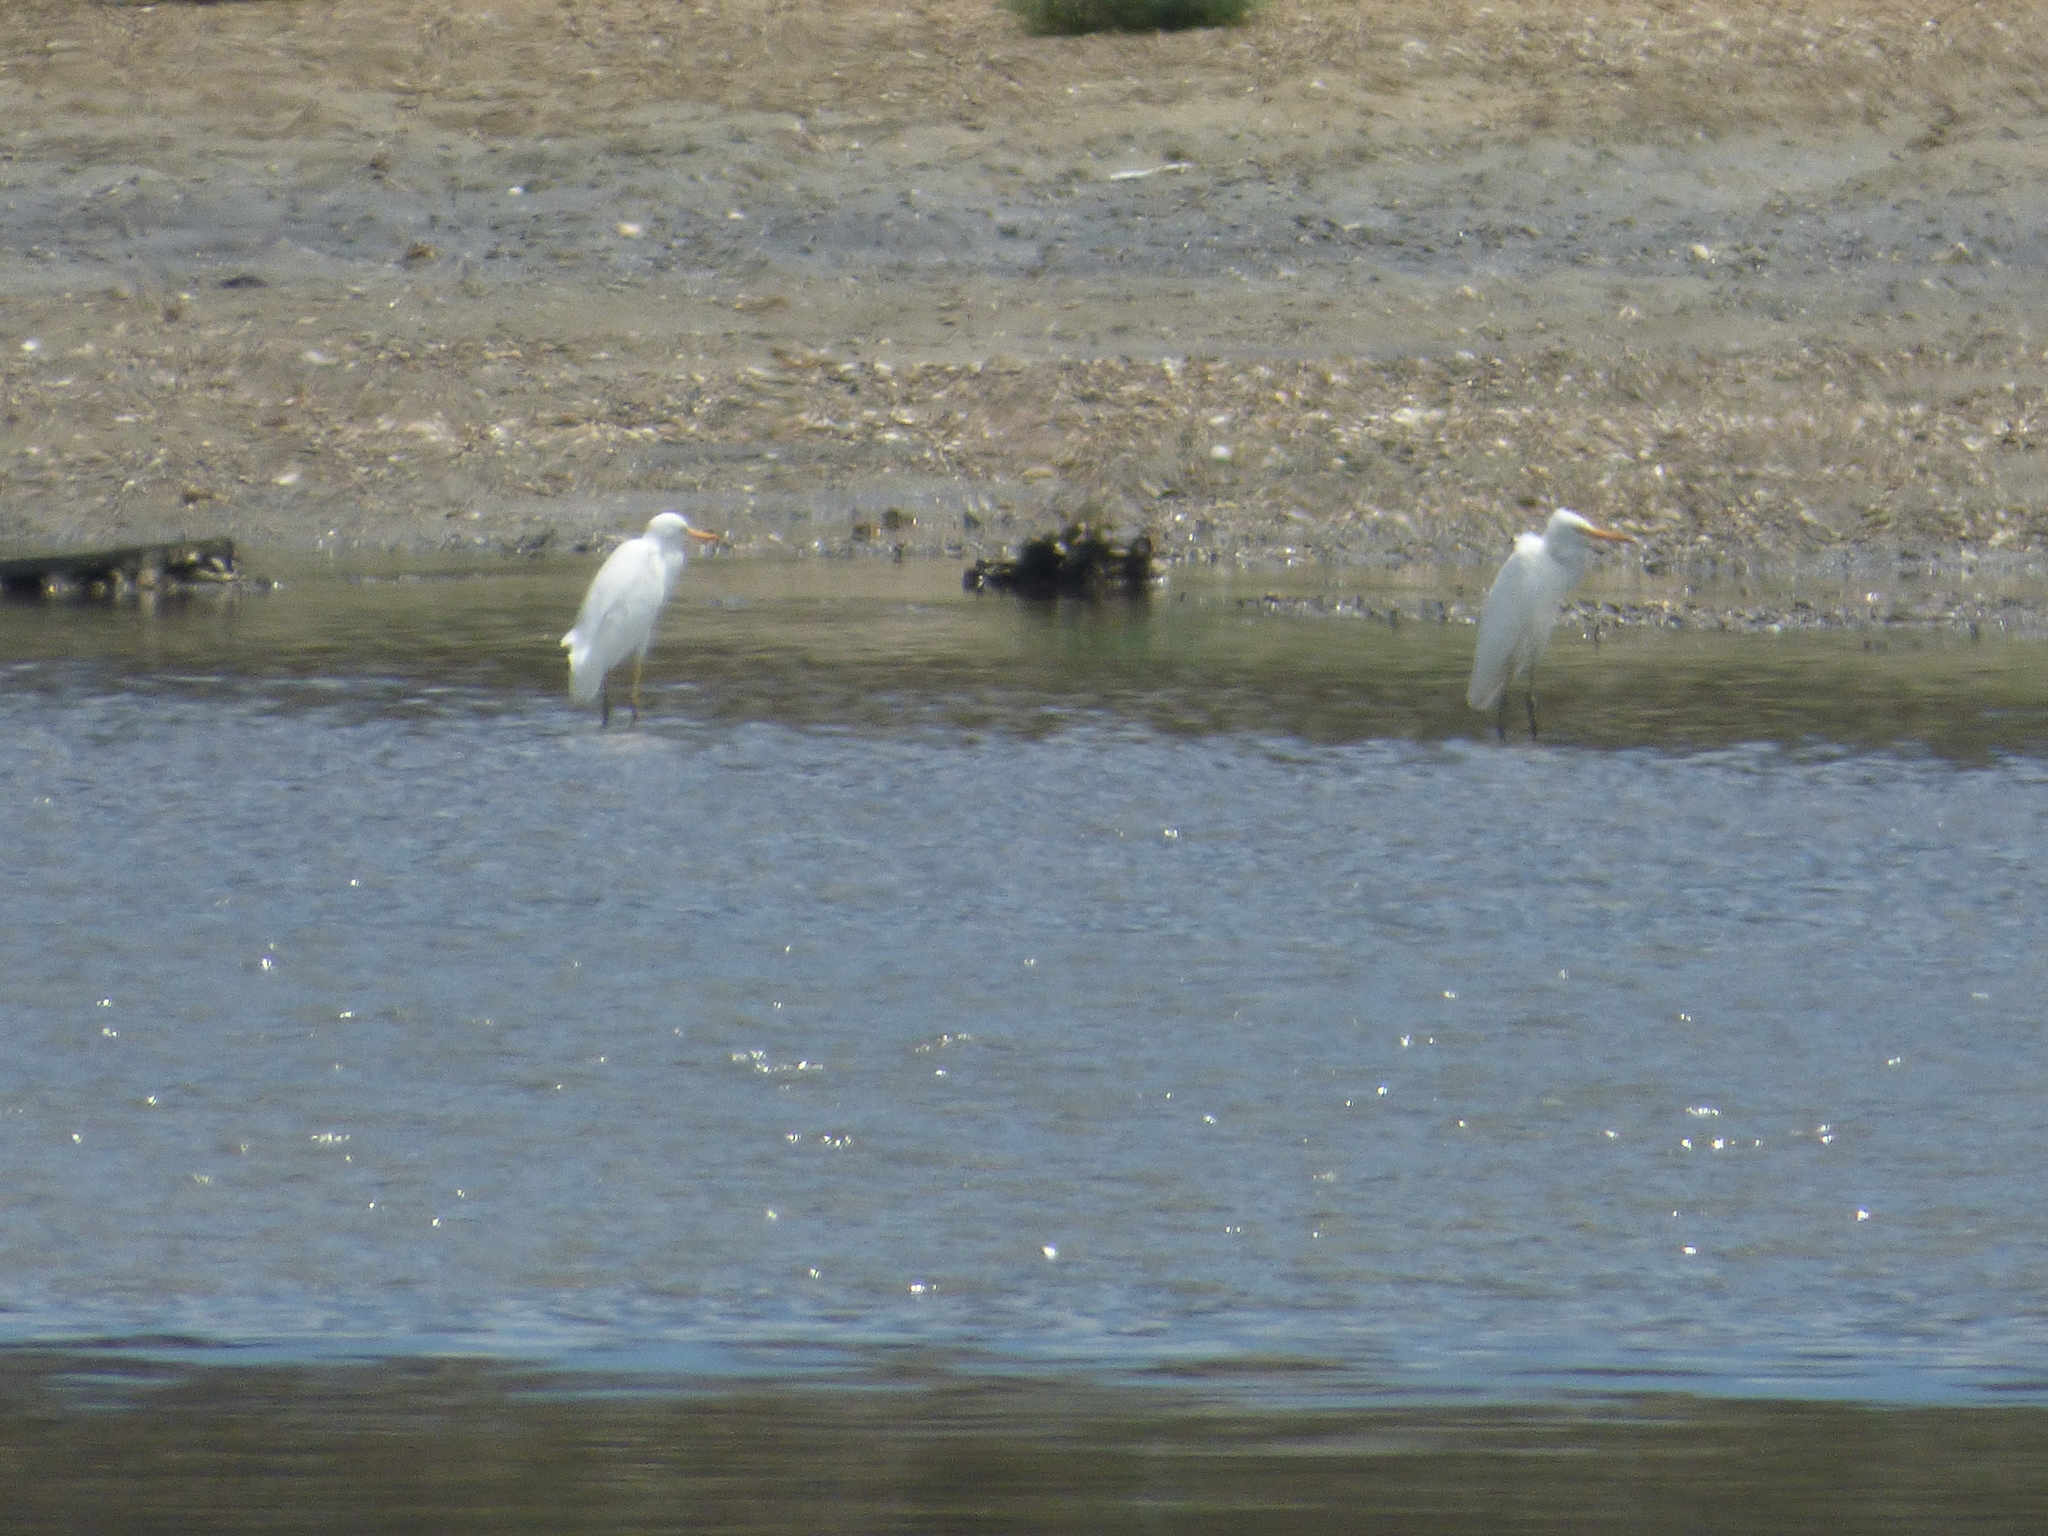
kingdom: Animalia
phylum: Chordata
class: Aves
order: Pelecaniformes
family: Ardeidae
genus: Egretta
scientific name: Egretta intermedia
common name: Intermediate egret
